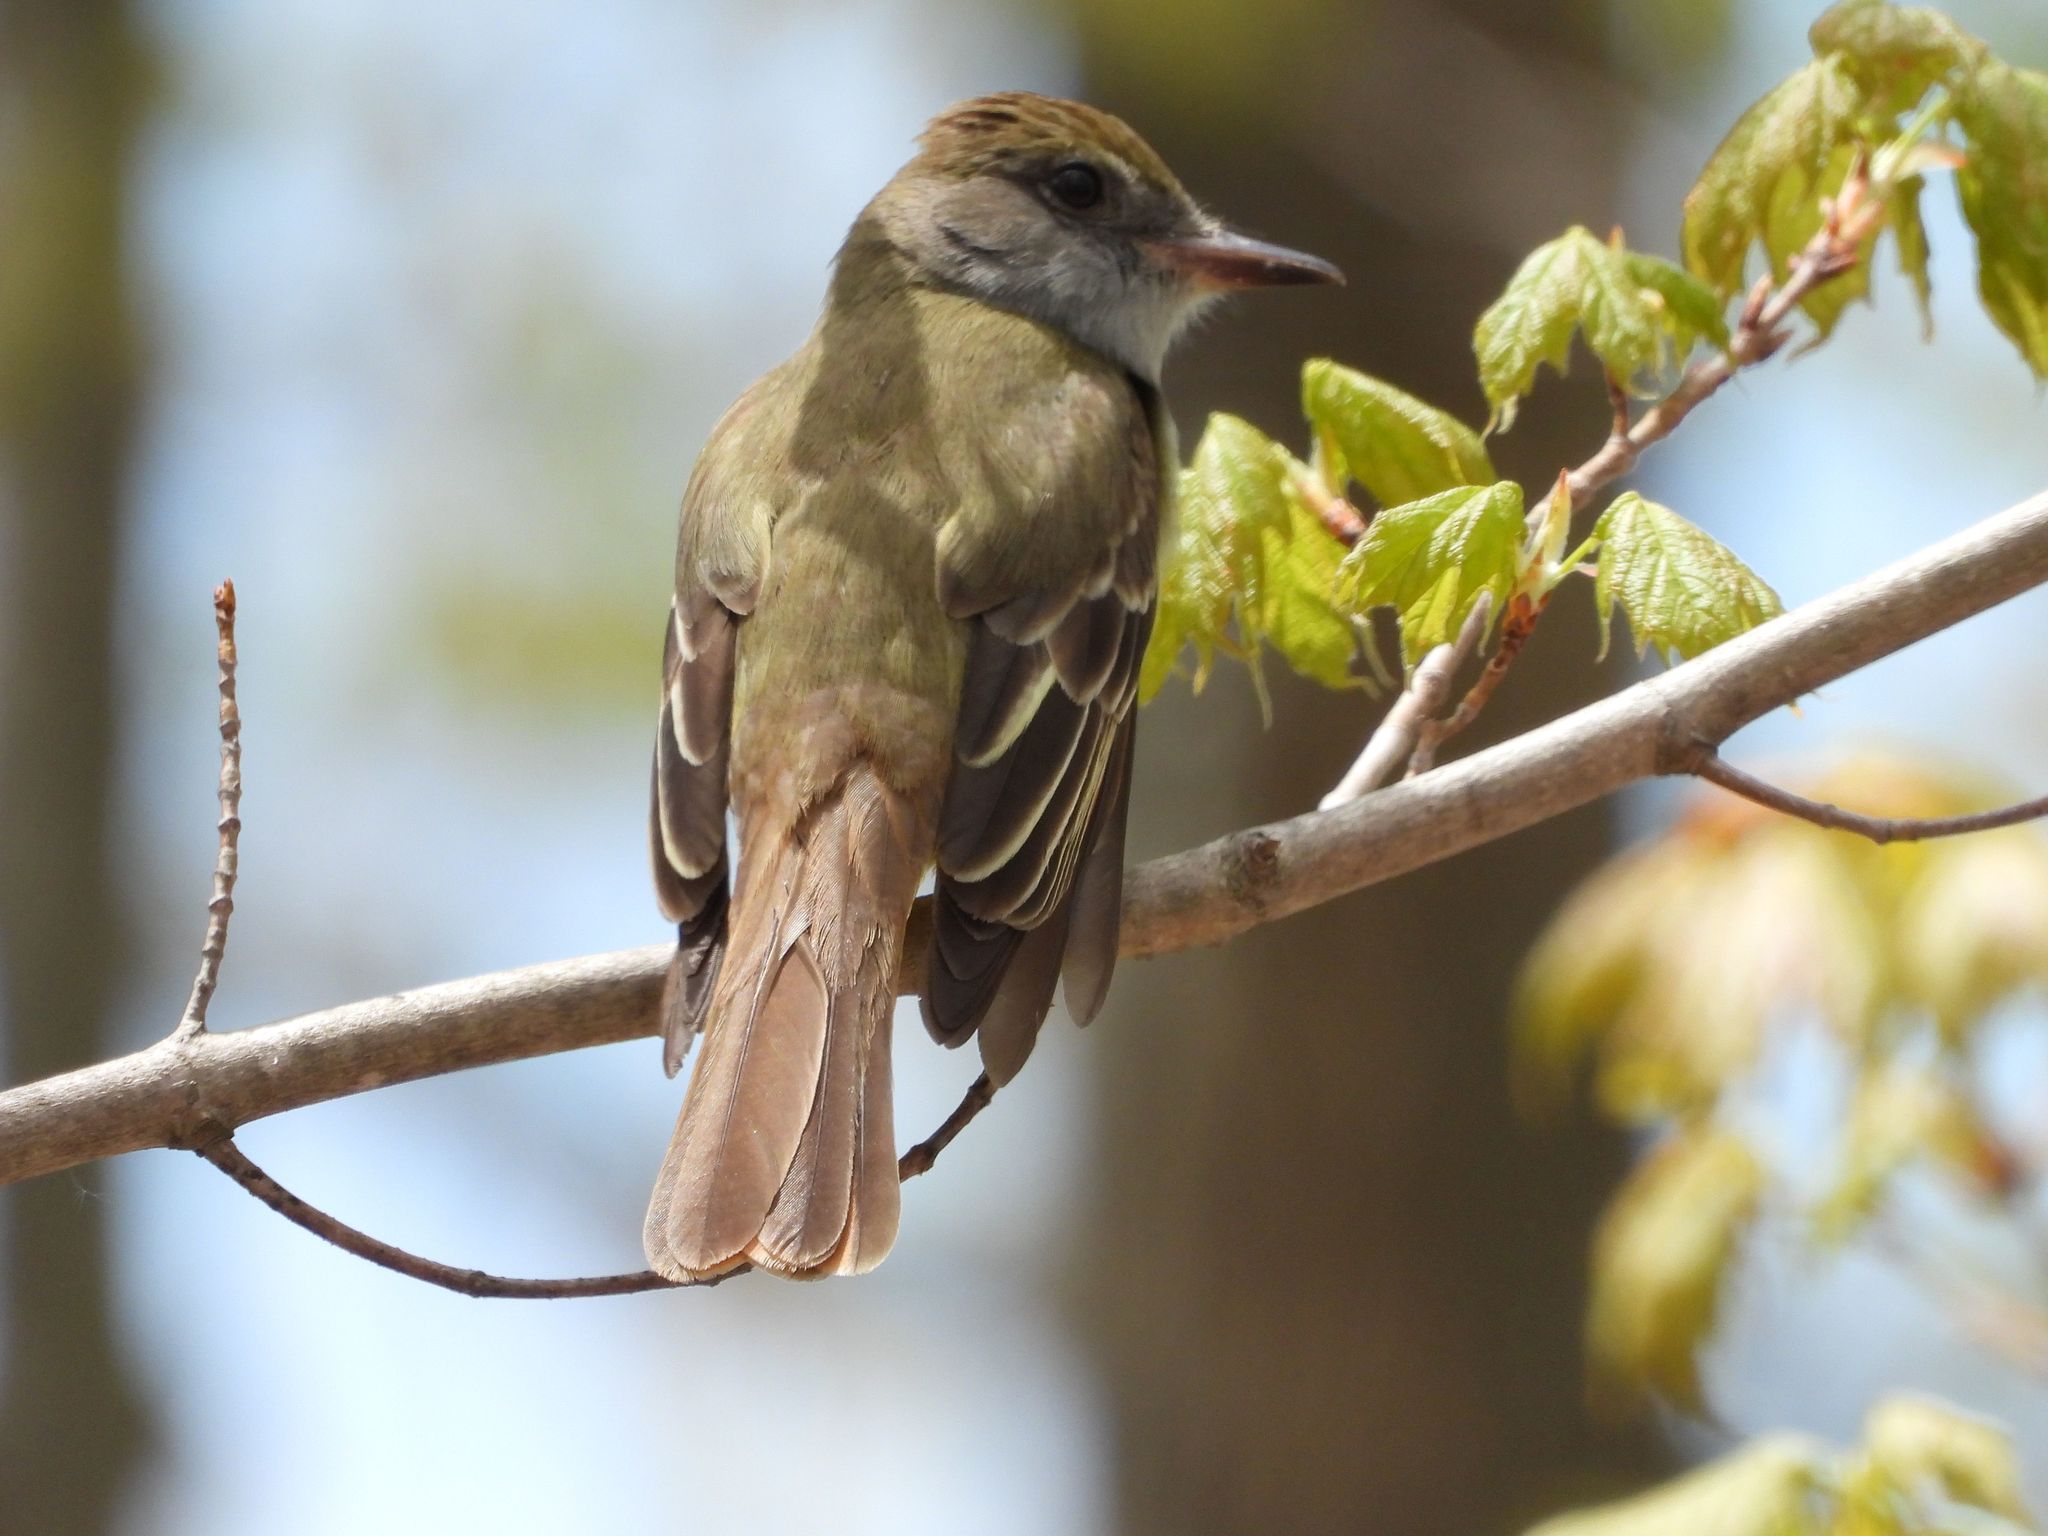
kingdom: Animalia
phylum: Chordata
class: Aves
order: Passeriformes
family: Tyrannidae
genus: Myiarchus
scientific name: Myiarchus crinitus
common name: Great crested flycatcher
